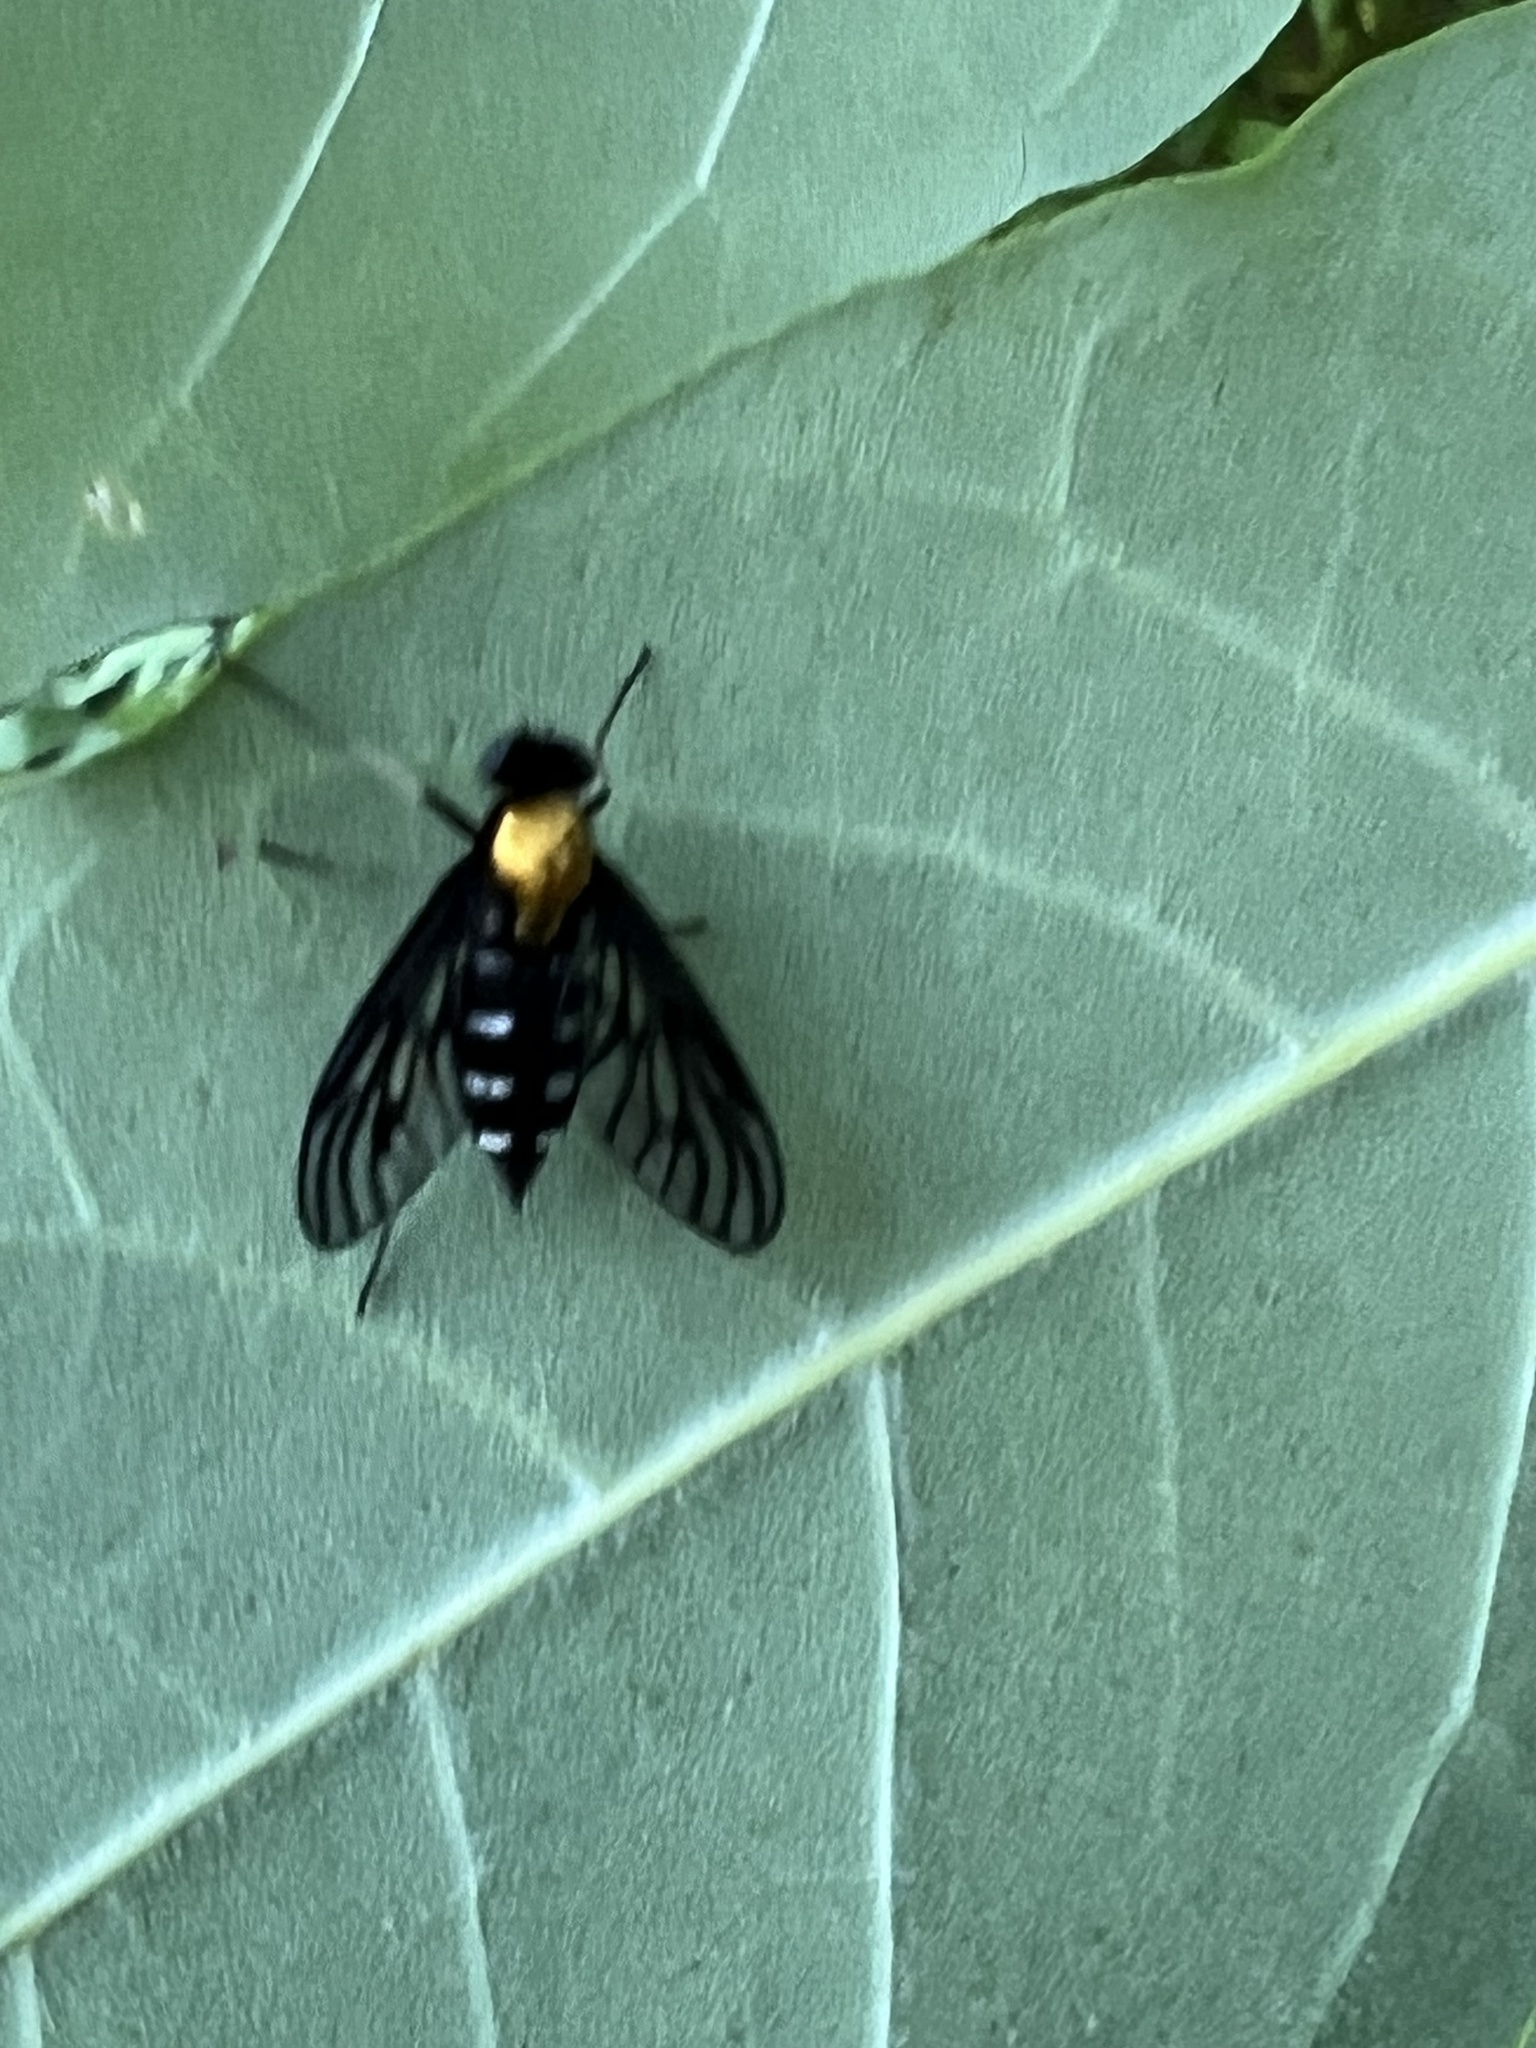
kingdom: Animalia
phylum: Arthropoda
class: Insecta
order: Diptera
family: Rhagionidae
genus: Chrysopilus
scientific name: Chrysopilus thoracicus
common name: Golden-backed snipe fly
